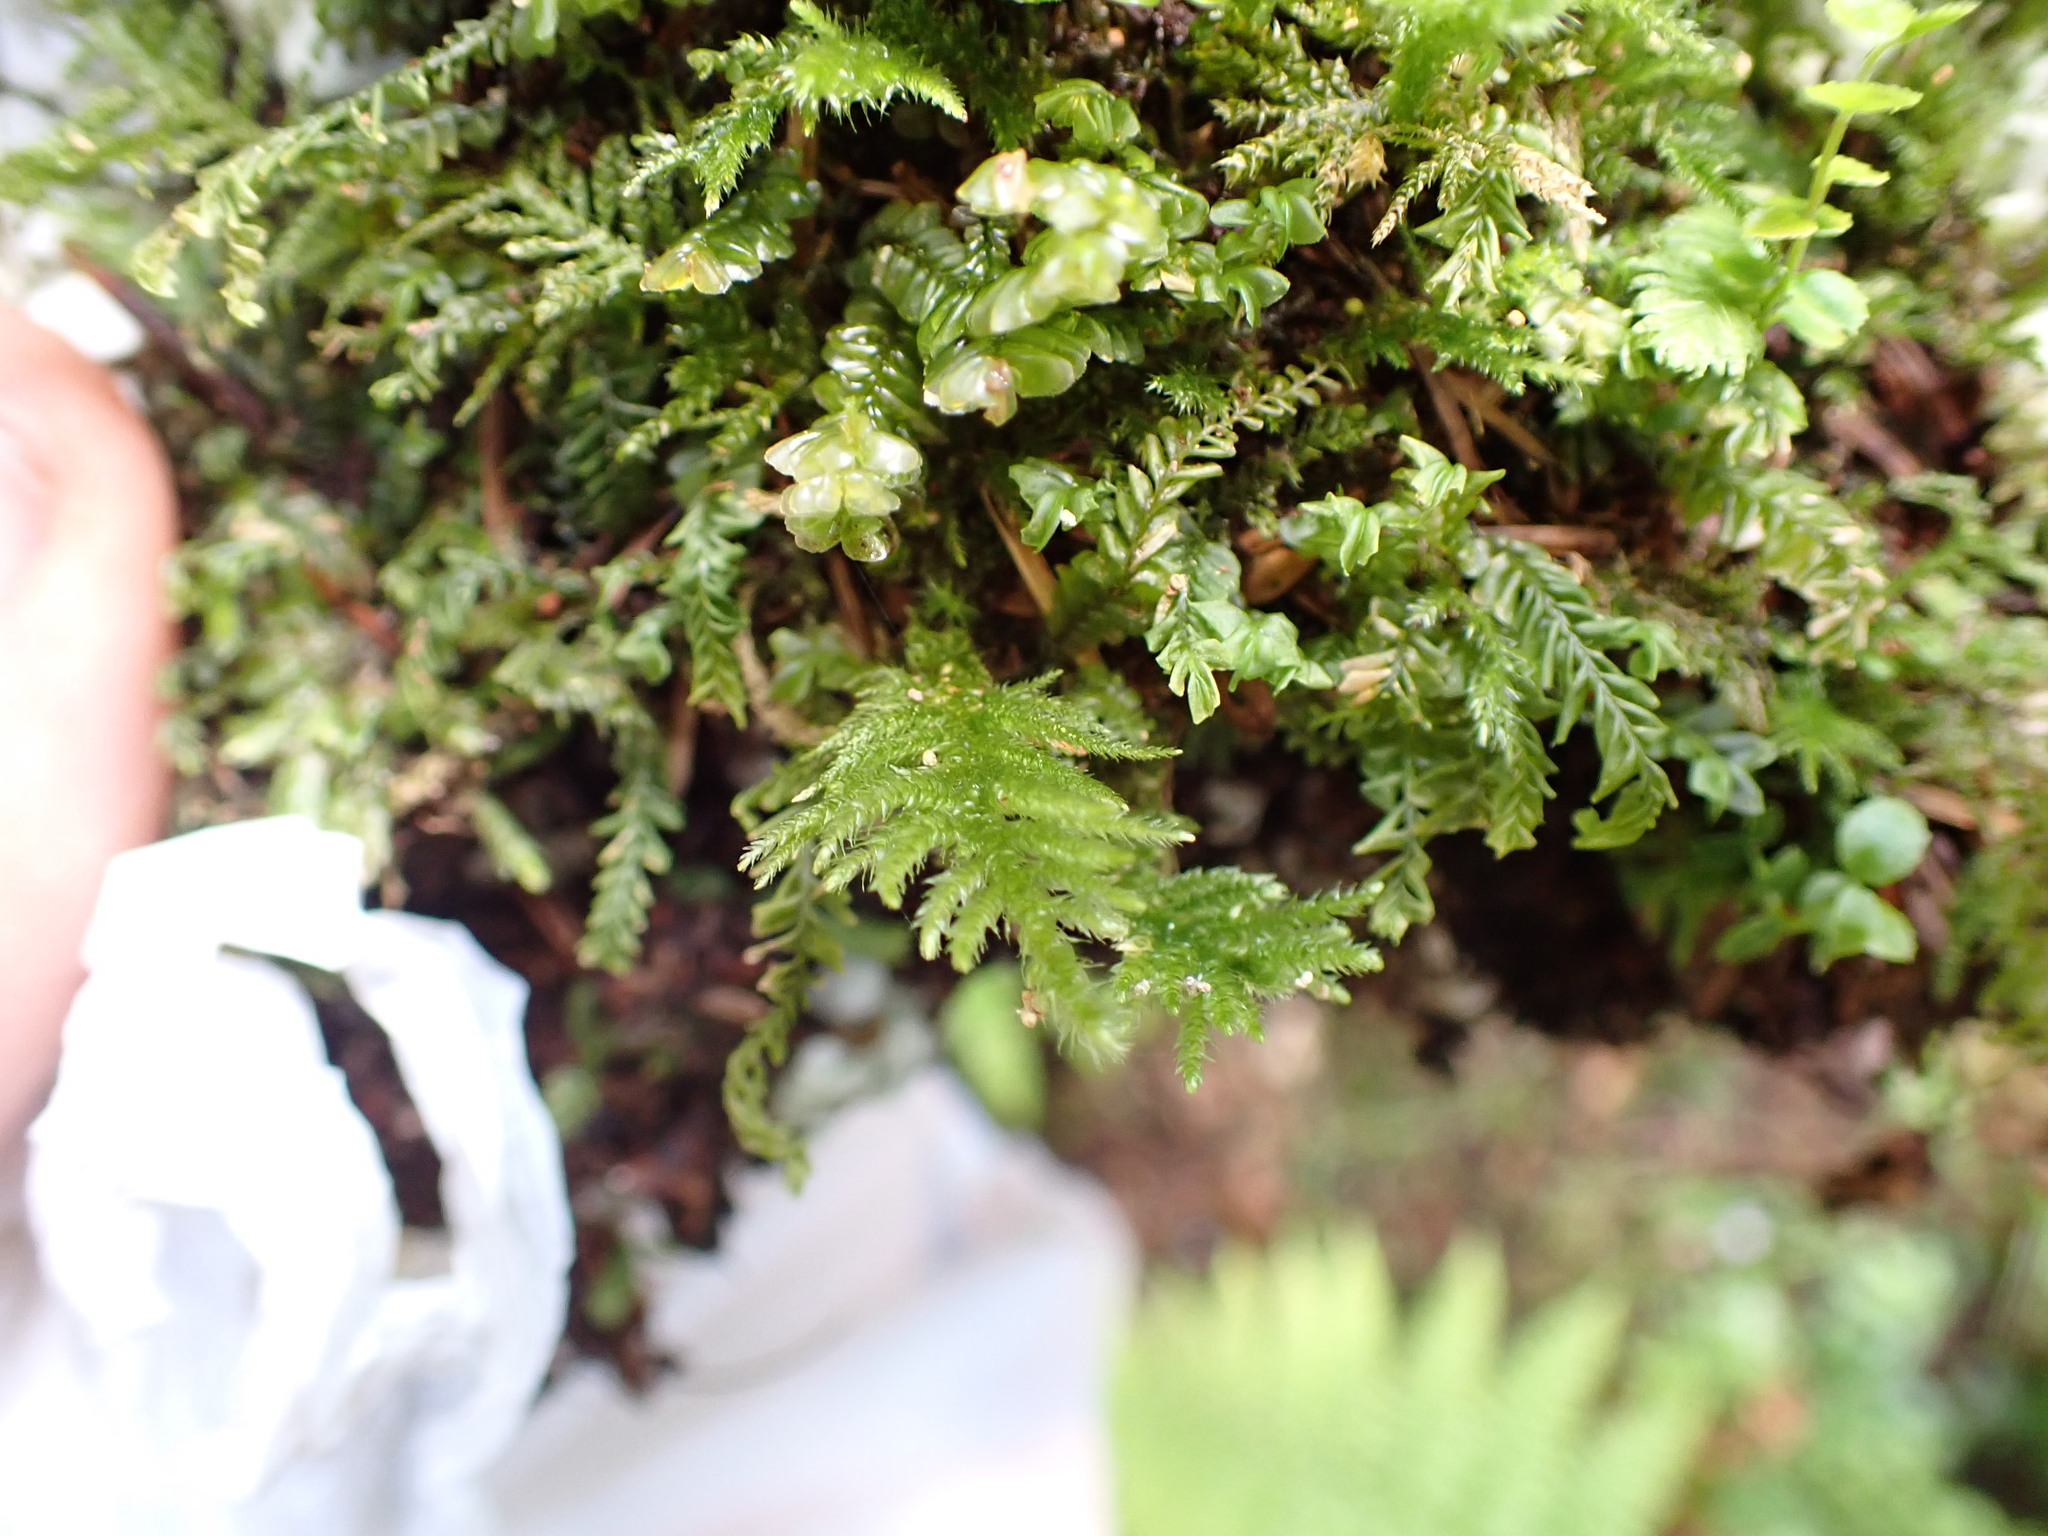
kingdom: Plantae
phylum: Bryophyta
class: Bryopsida
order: Hypnales
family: Brachytheciaceae
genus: Kindbergia
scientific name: Kindbergia oregana
